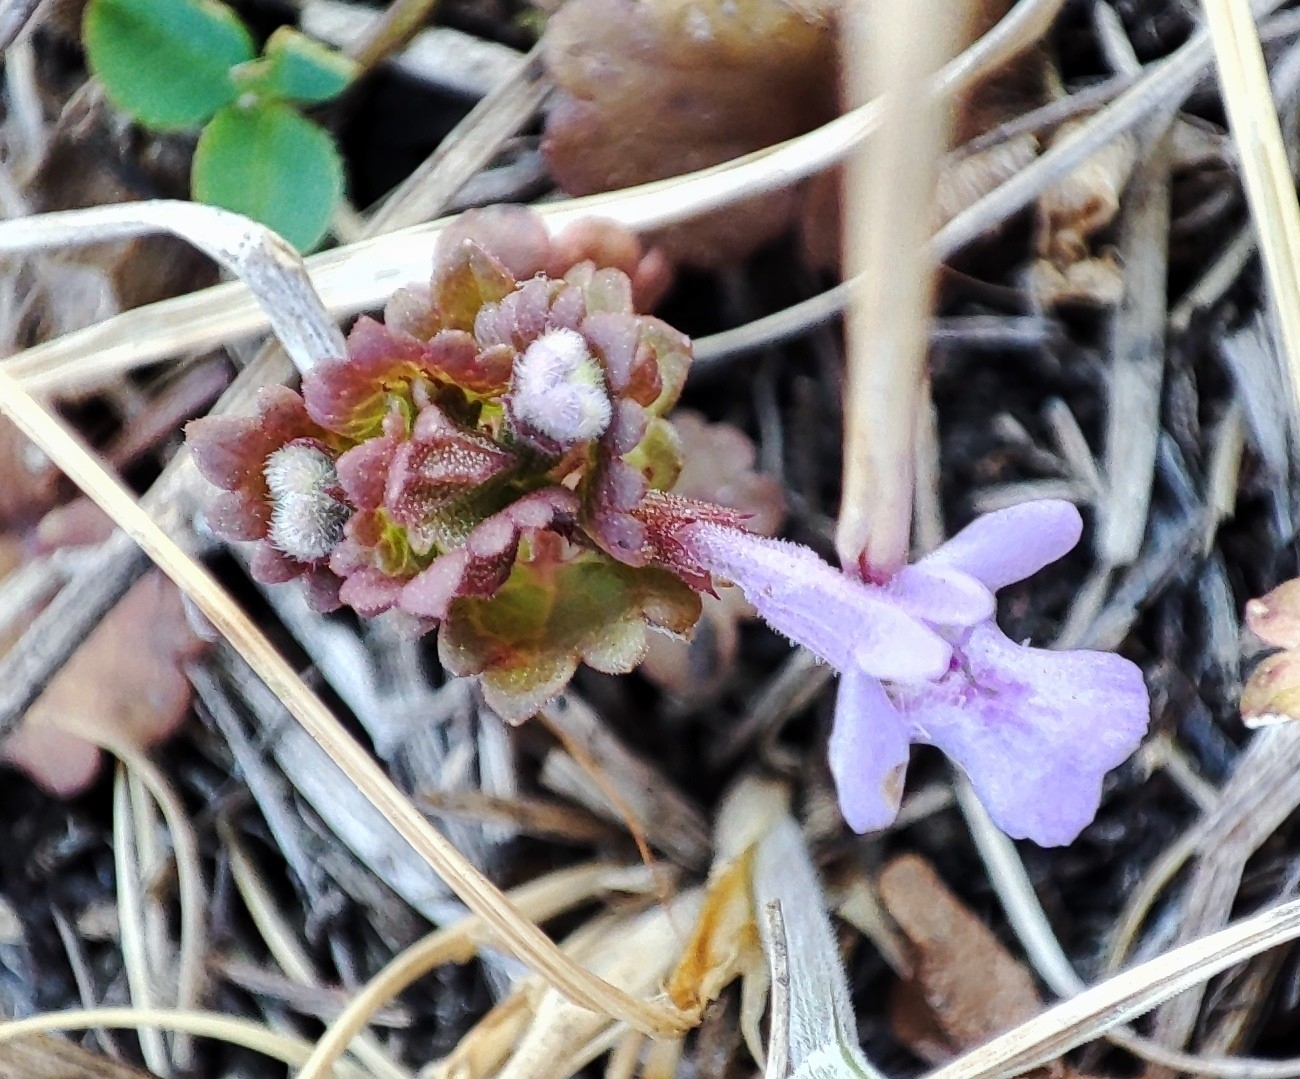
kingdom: Plantae
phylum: Tracheophyta
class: Magnoliopsida
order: Lamiales
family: Lamiaceae
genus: Glechoma
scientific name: Glechoma hederacea
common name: Ground ivy
